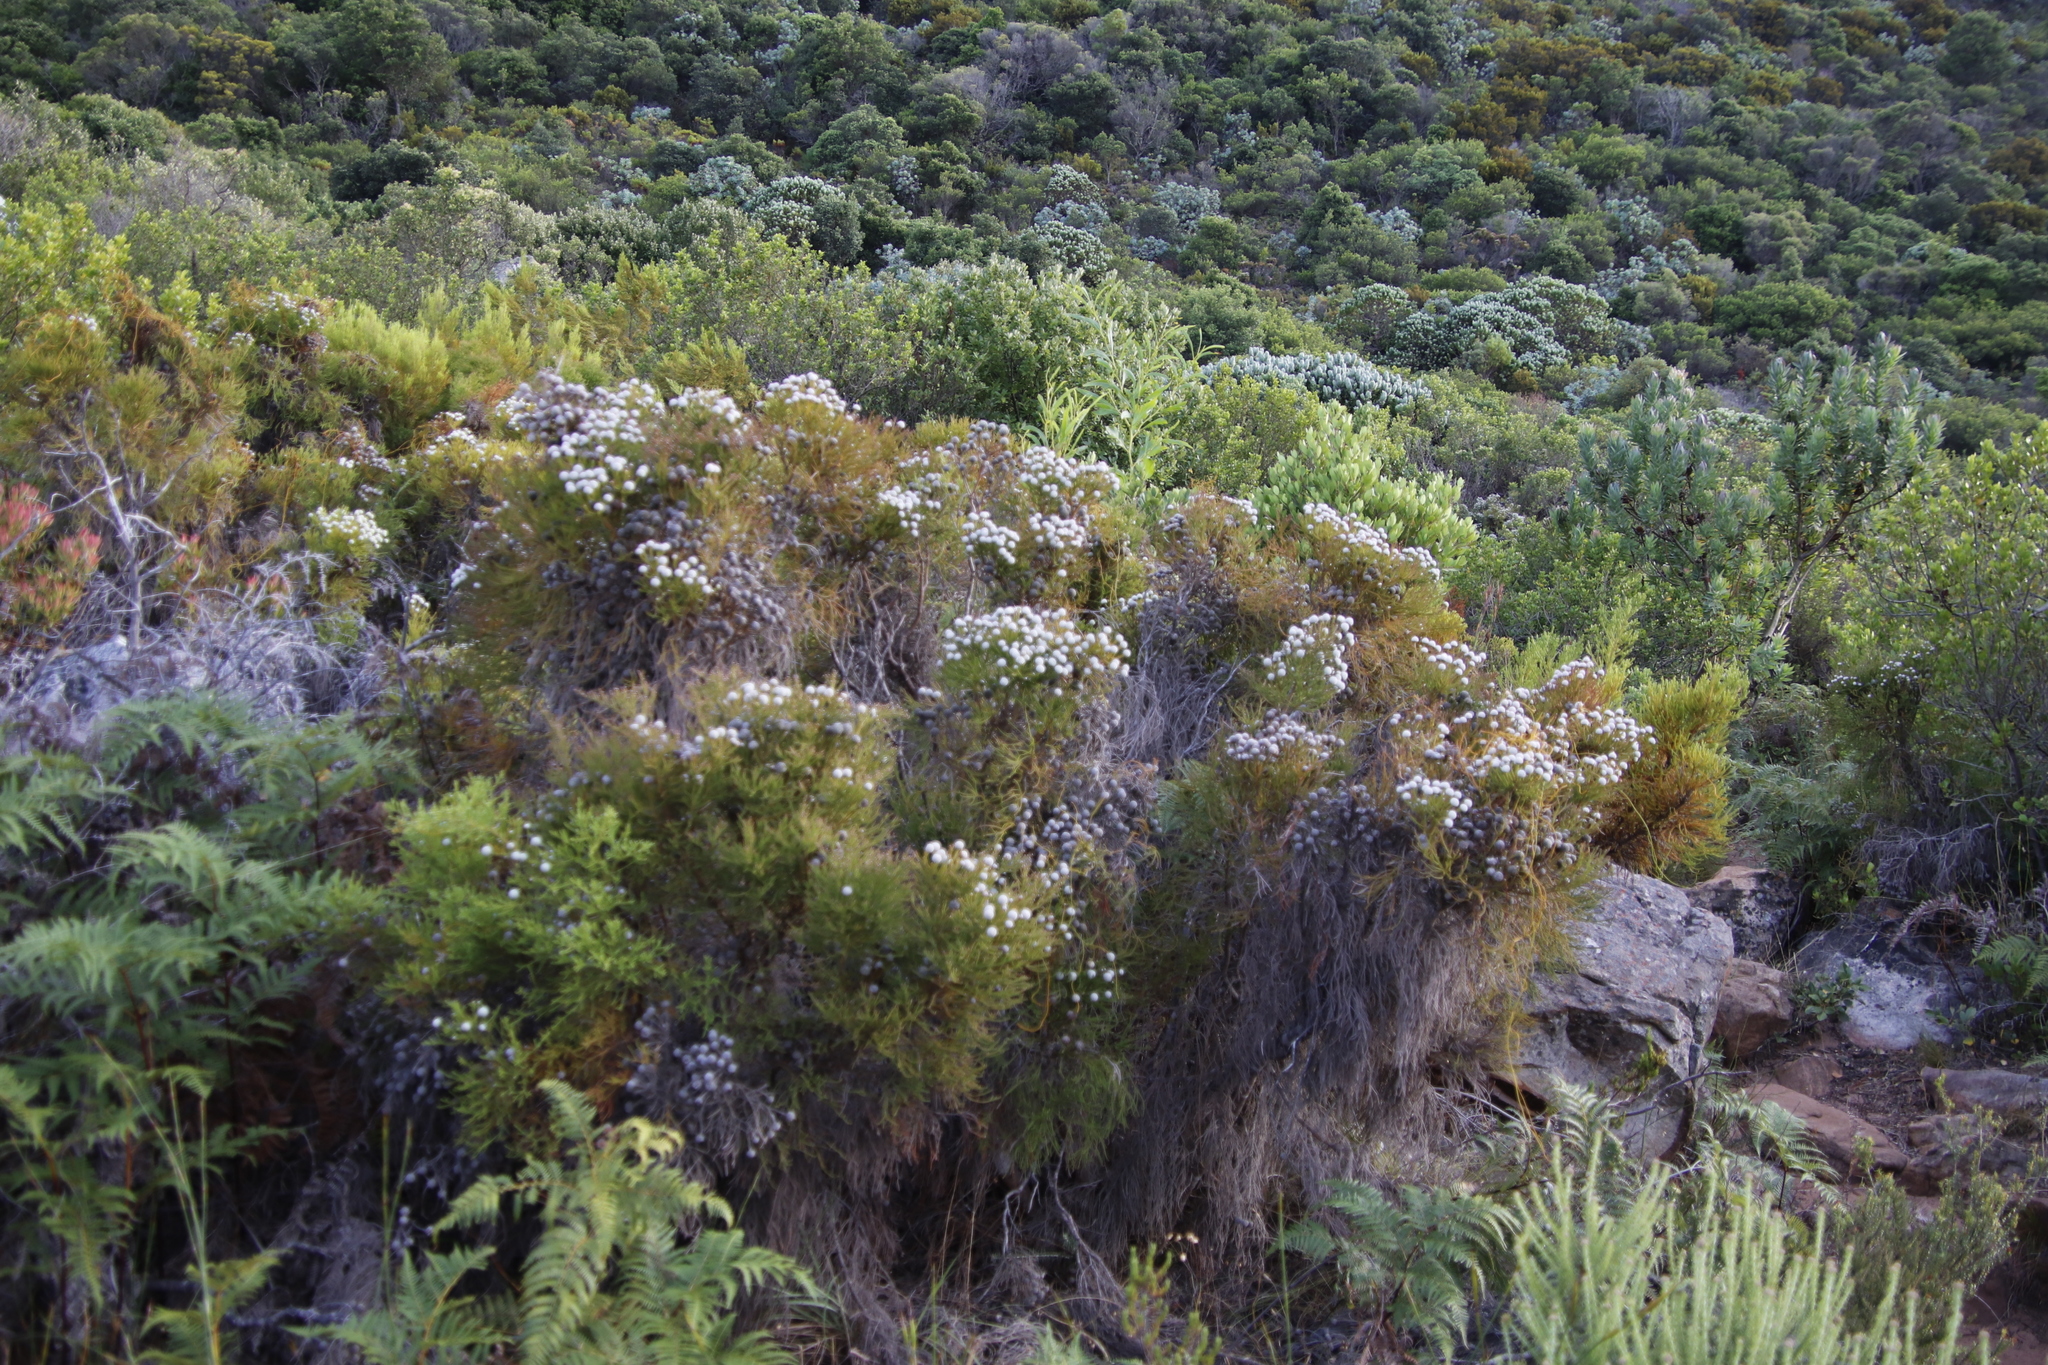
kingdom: Plantae
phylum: Tracheophyta
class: Magnoliopsida
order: Bruniales
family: Bruniaceae
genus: Brunia
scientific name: Brunia noduliflora
